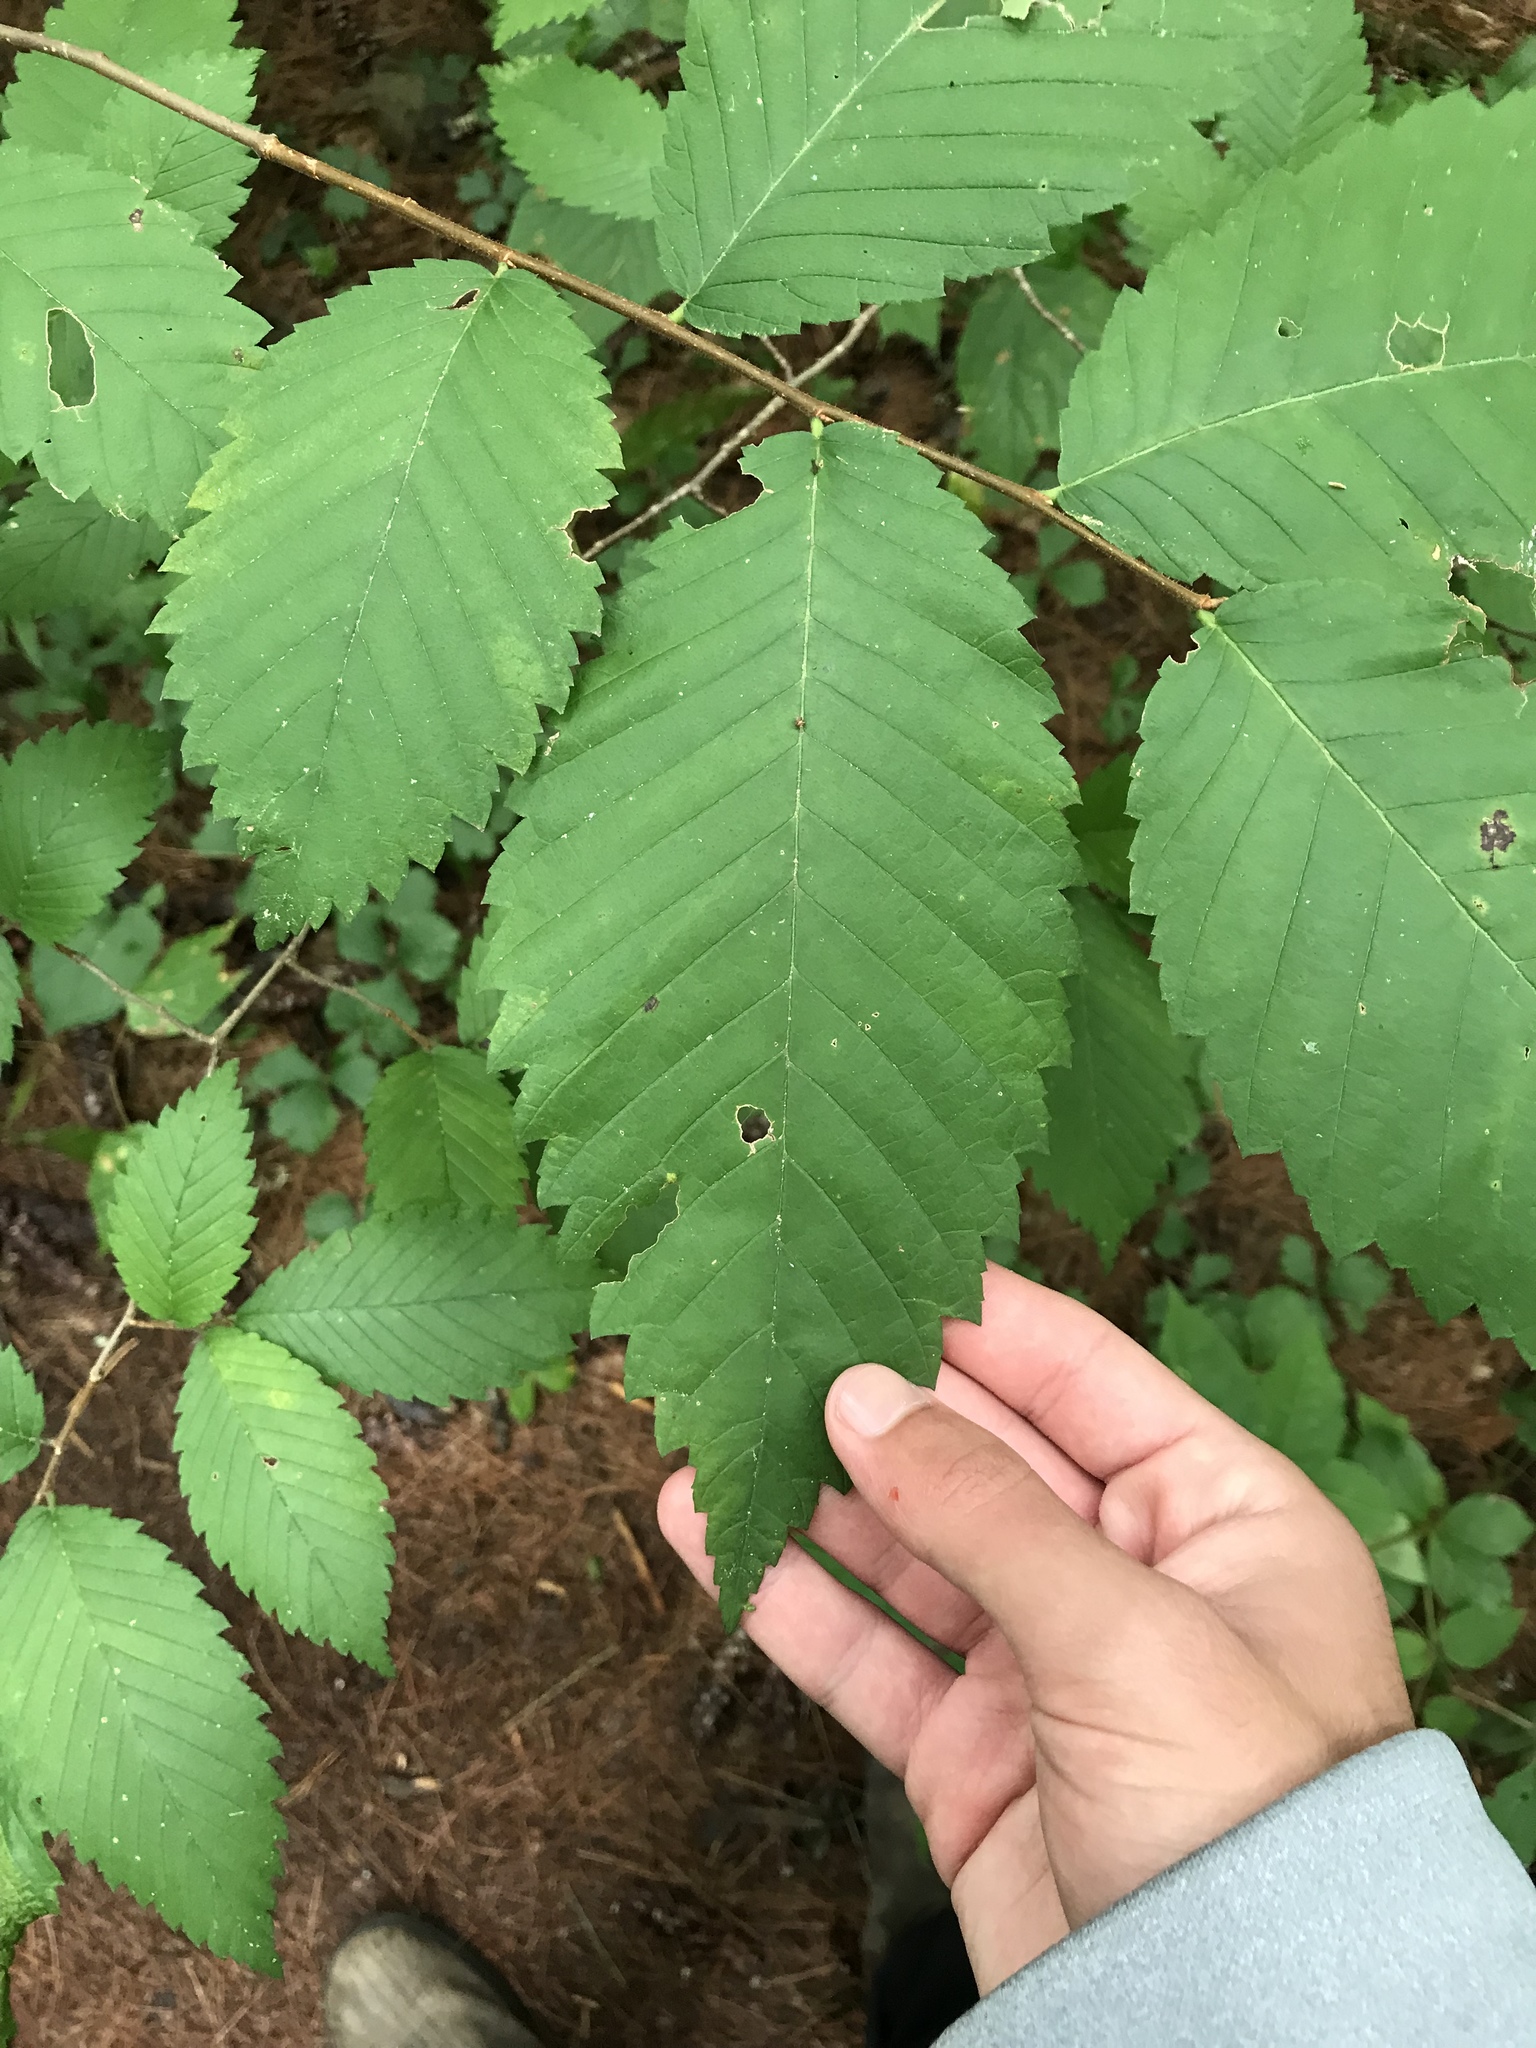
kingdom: Plantae
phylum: Tracheophyta
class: Magnoliopsida
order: Rosales
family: Ulmaceae
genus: Ulmus
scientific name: Ulmus americana
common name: American elm
